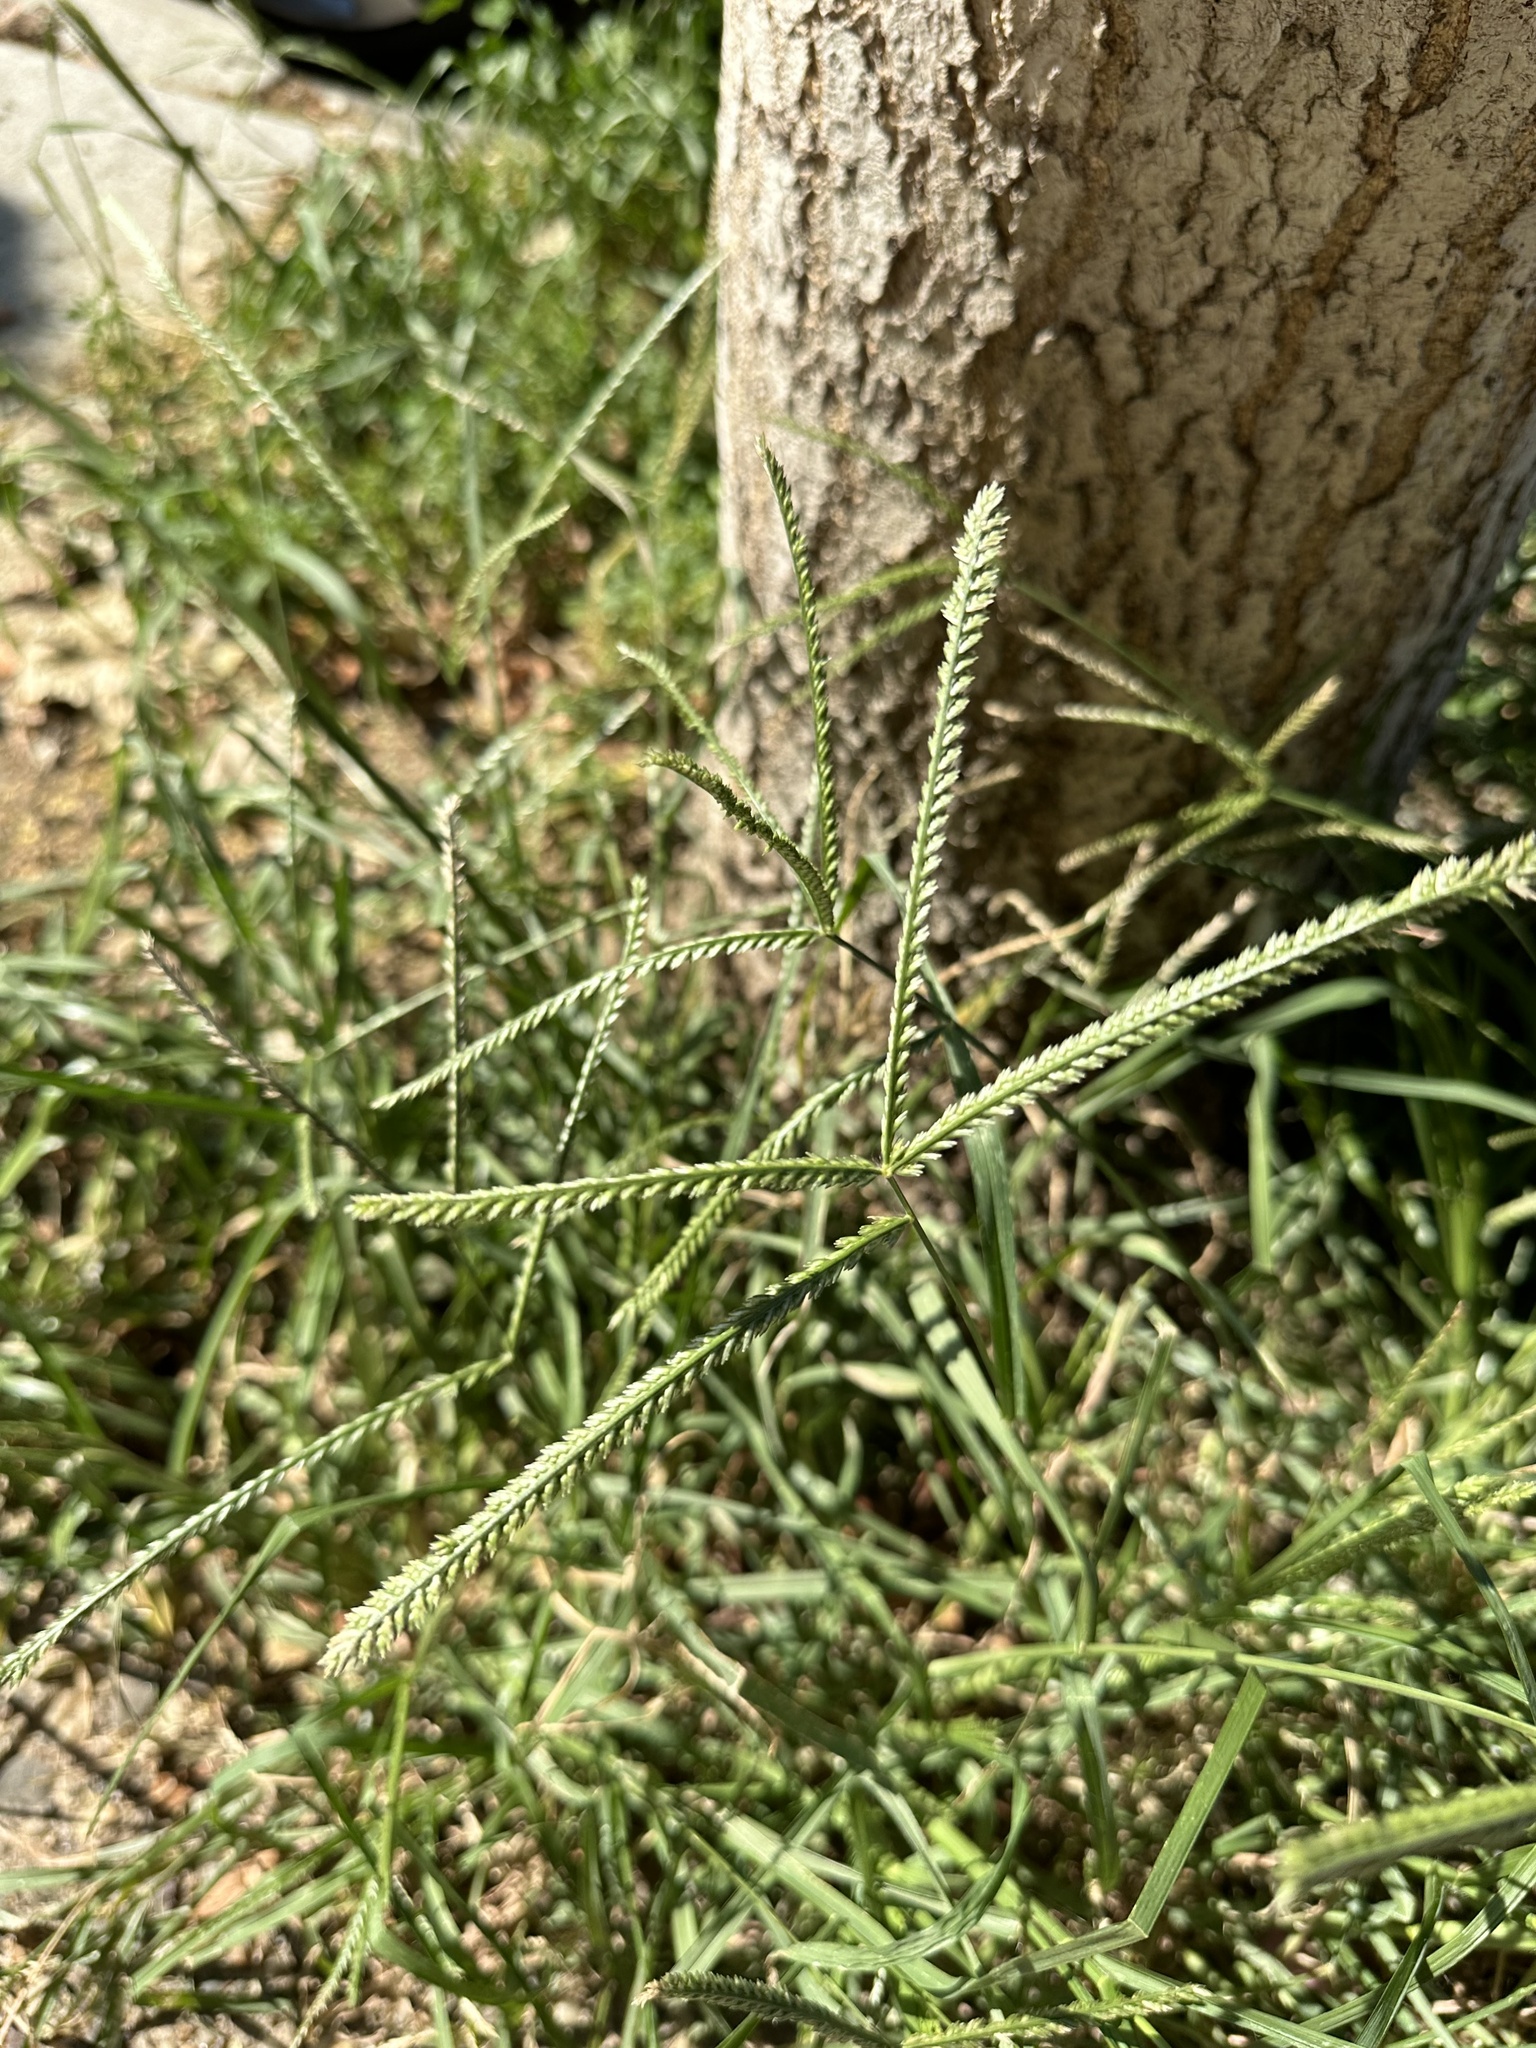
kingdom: Plantae
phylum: Tracheophyta
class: Liliopsida
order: Poales
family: Poaceae
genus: Eleusine
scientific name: Eleusine indica
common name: Yard-grass
